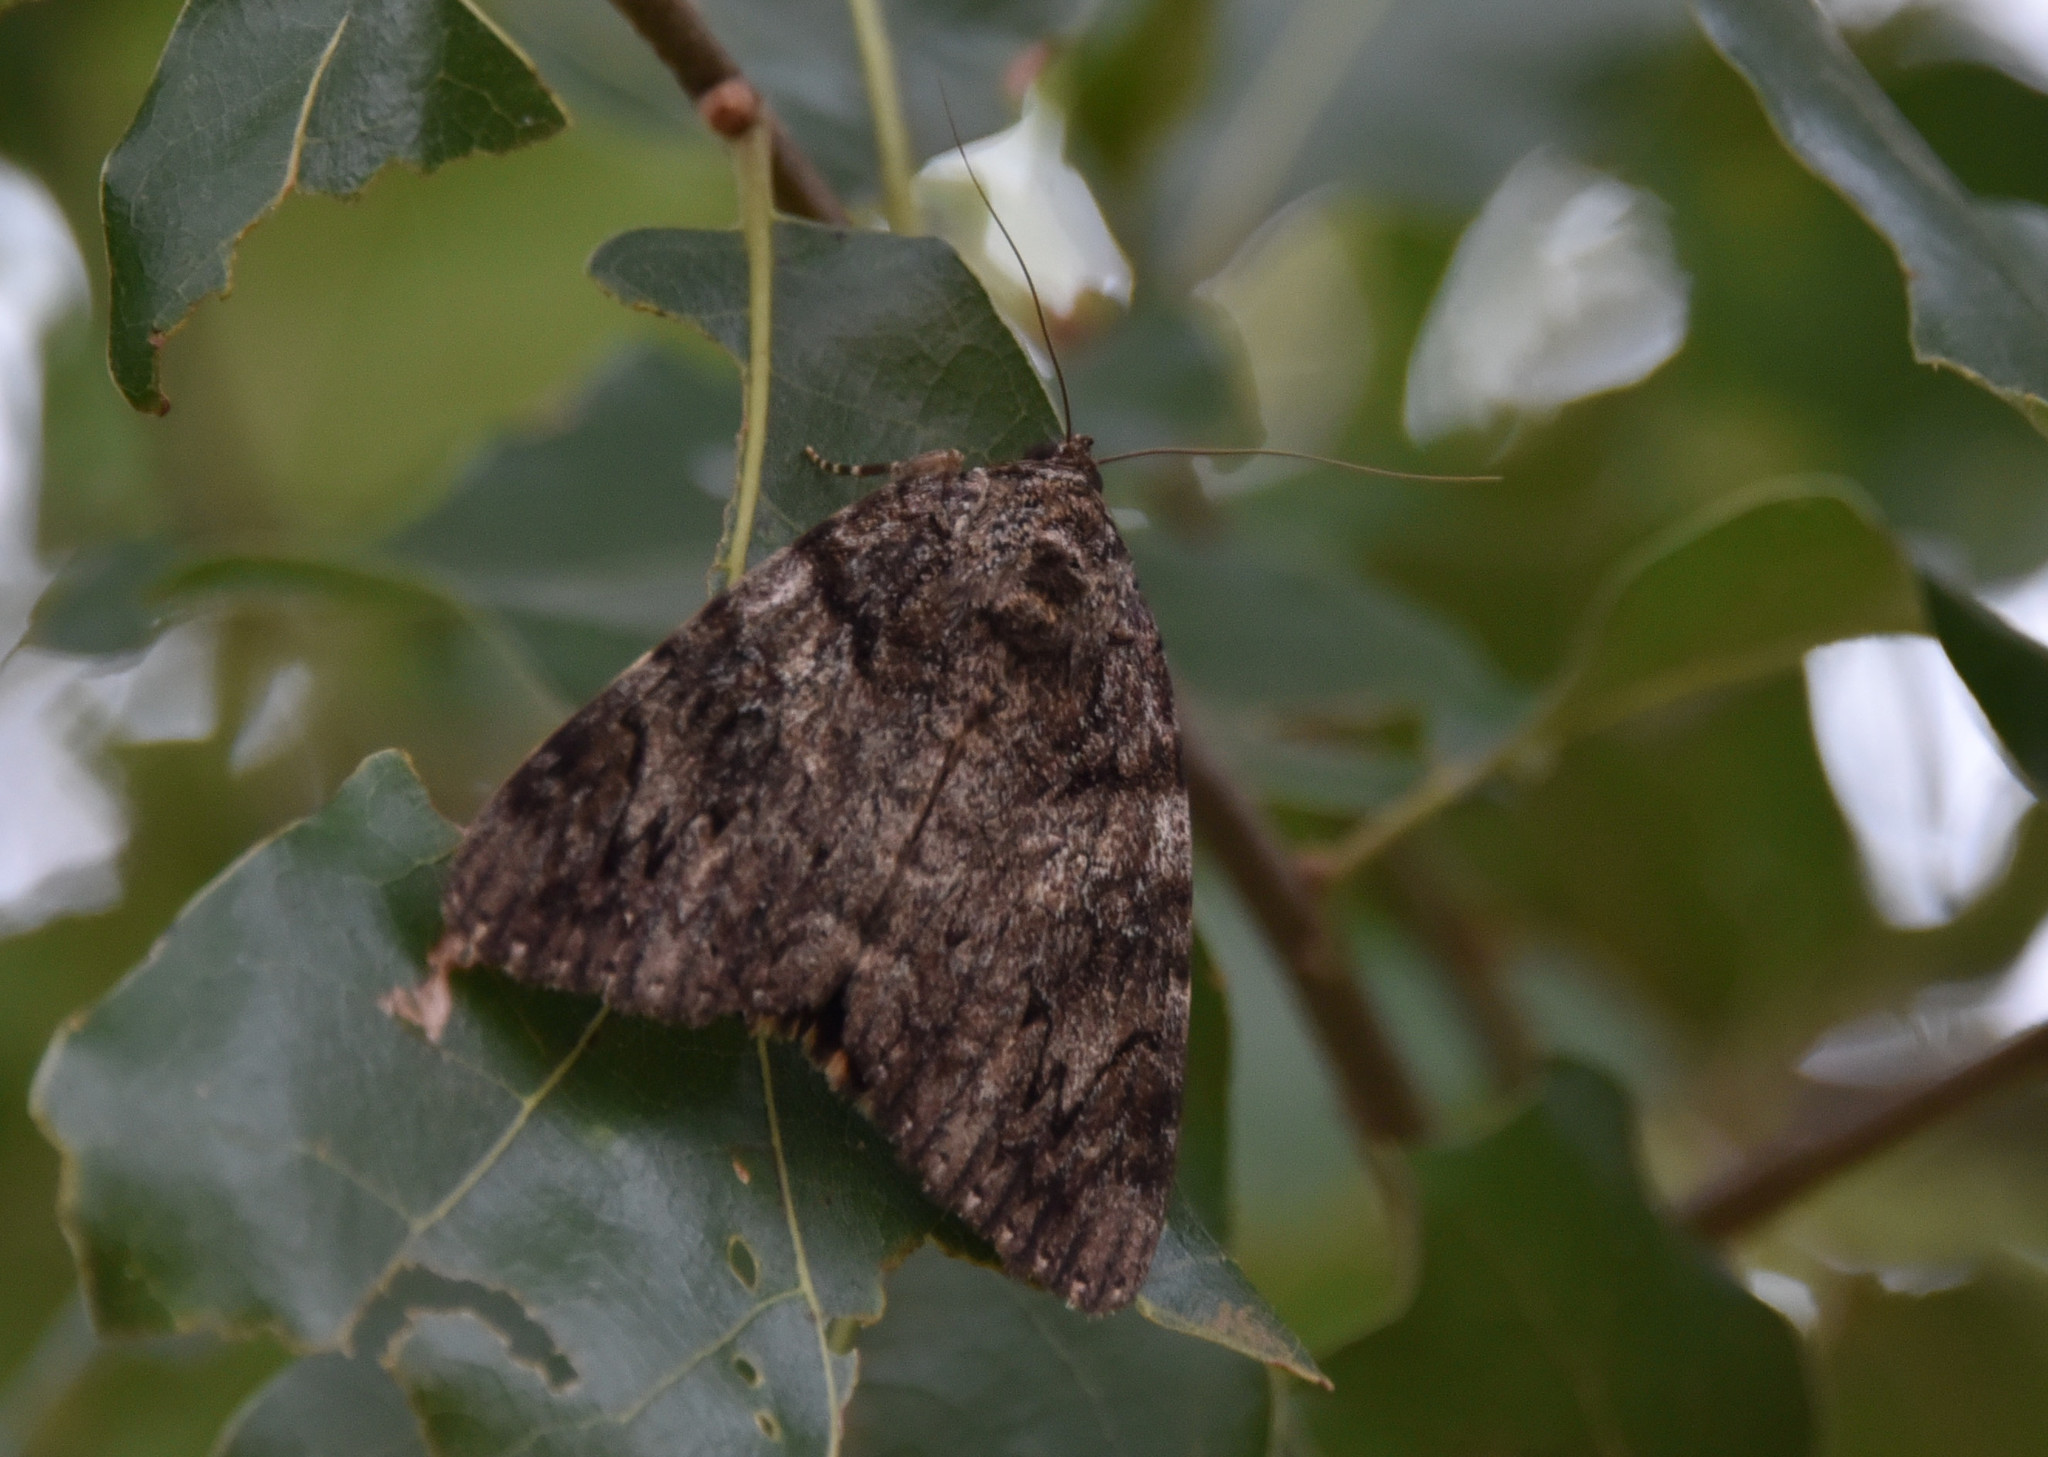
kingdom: Animalia
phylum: Arthropoda
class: Insecta
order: Lepidoptera
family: Erebidae
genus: Catocala
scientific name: Catocala ilia
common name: Ilia underwing
